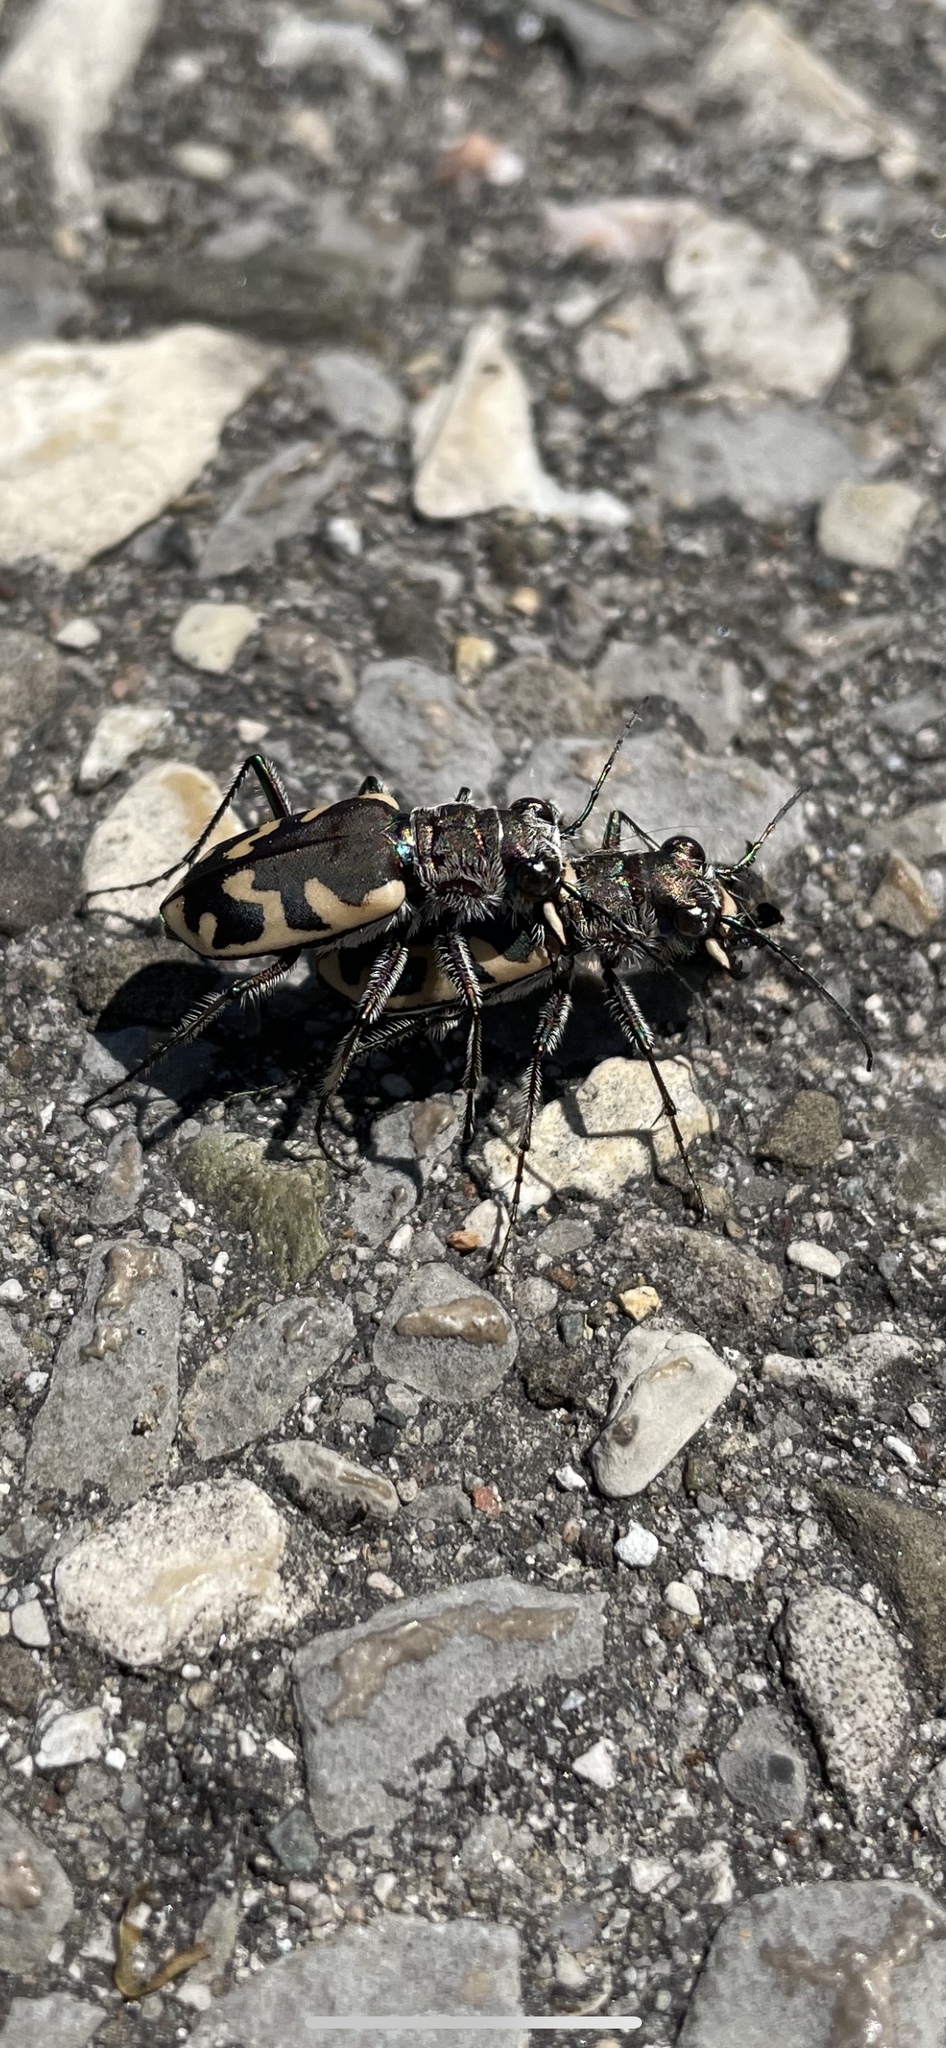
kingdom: Animalia
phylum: Arthropoda
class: Insecta
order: Coleoptera
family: Carabidae
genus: Cicindela
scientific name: Cicindela formosa
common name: Big sand tiger beetle
